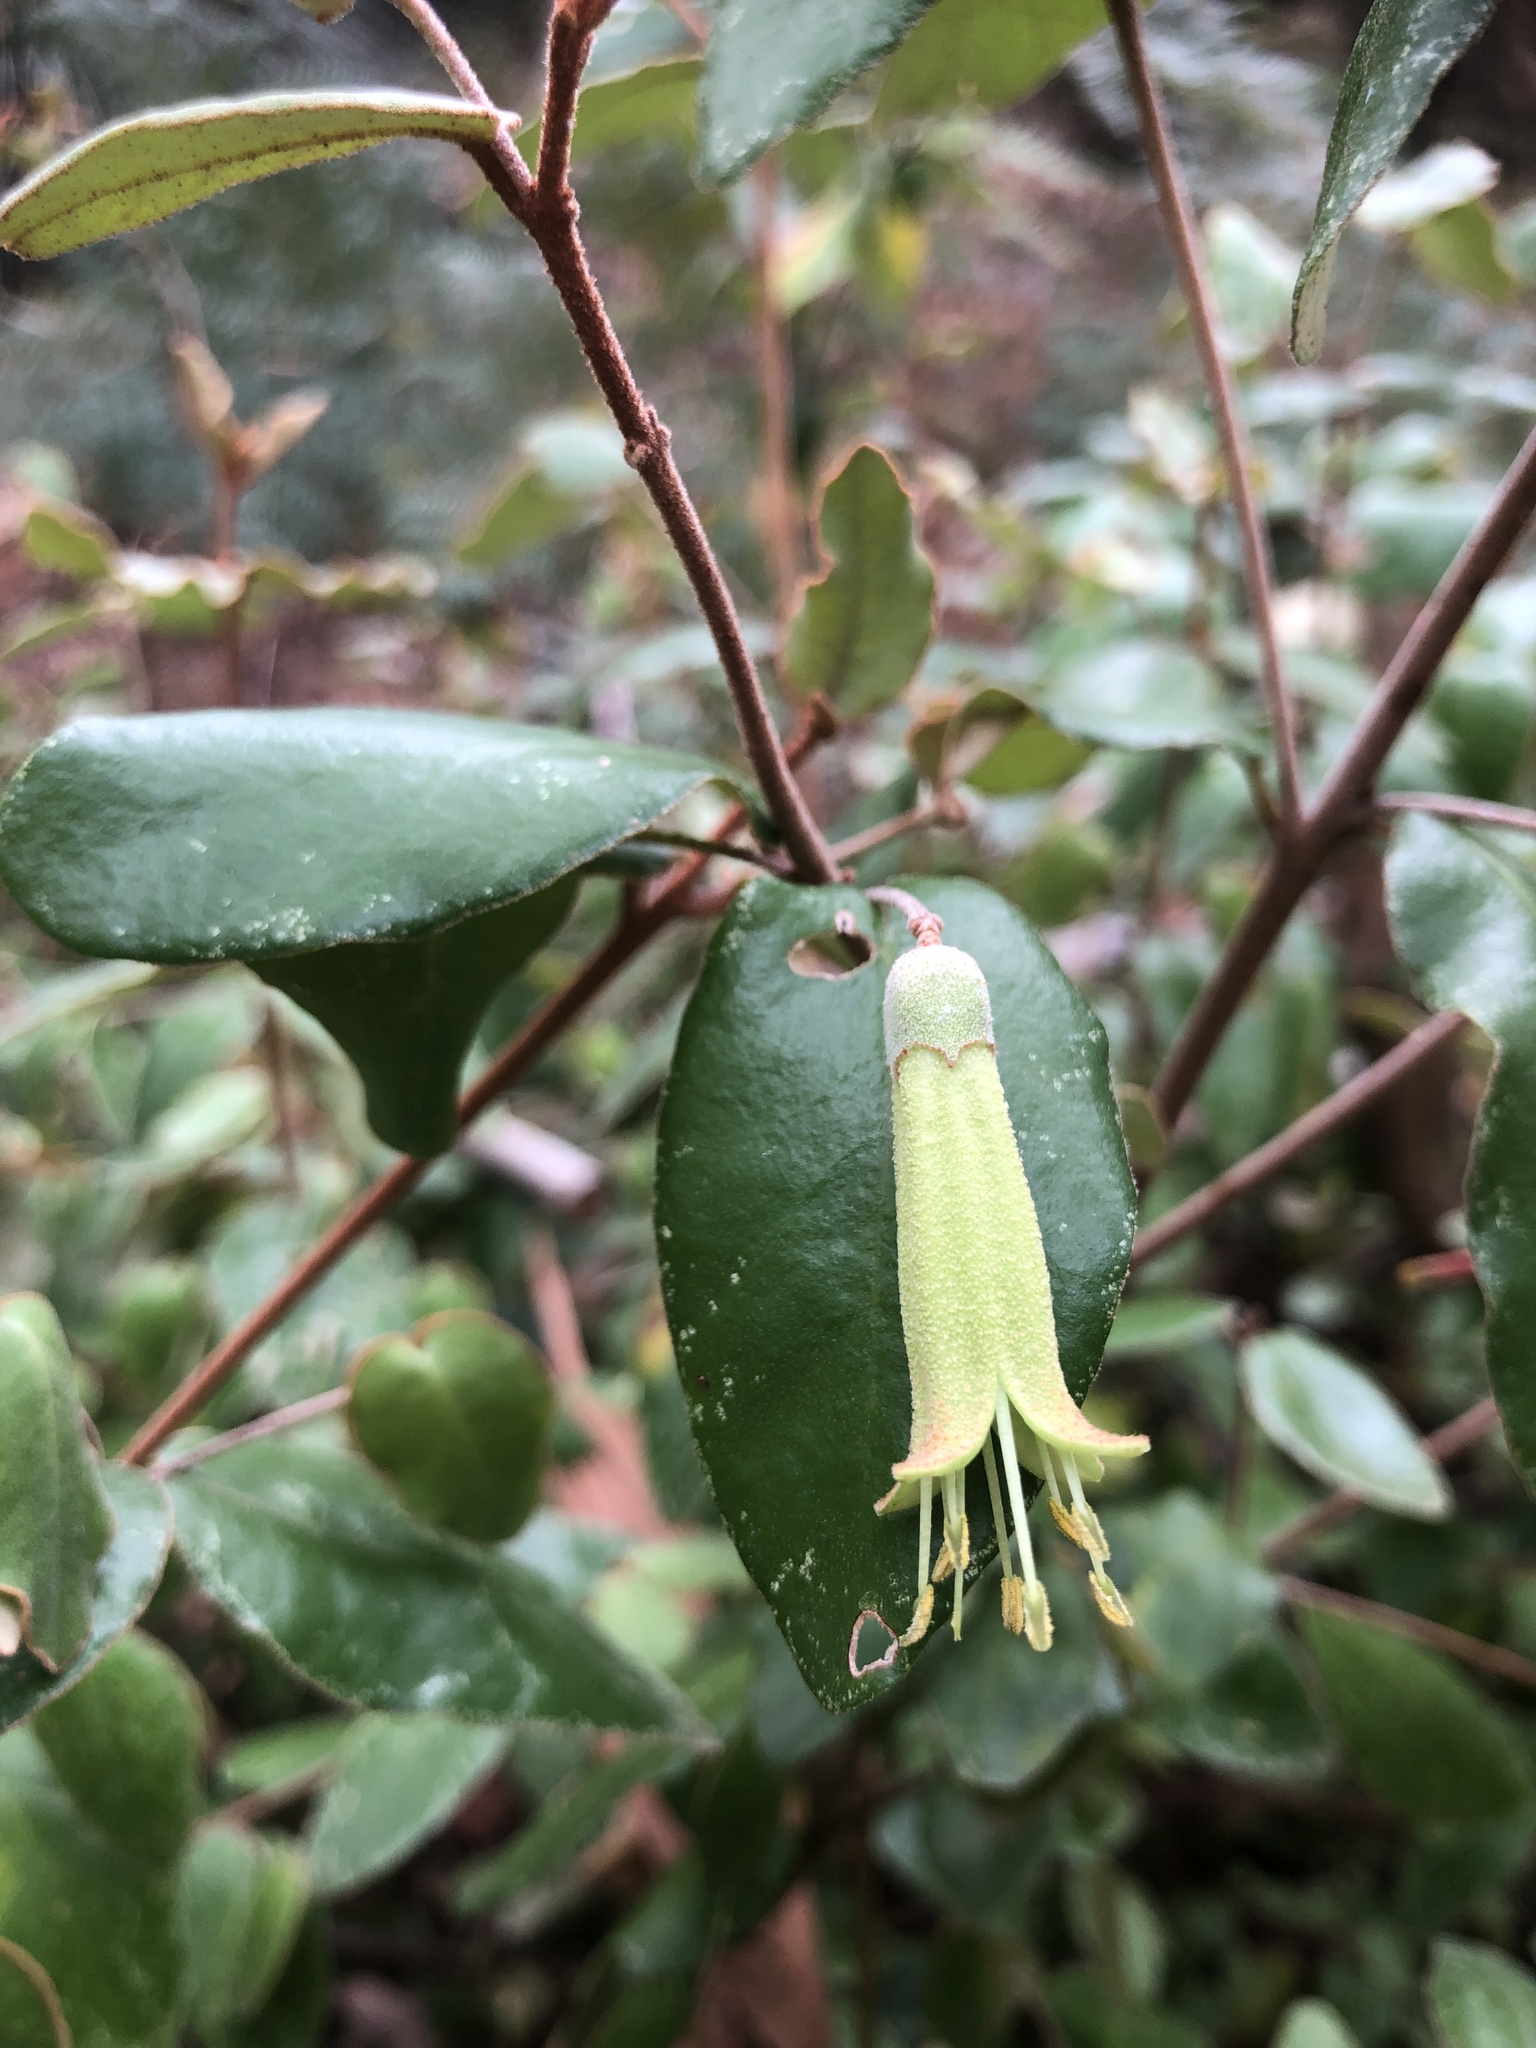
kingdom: Plantae
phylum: Tracheophyta
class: Magnoliopsida
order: Sapindales
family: Rutaceae
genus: Correa
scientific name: Correa eburnea
